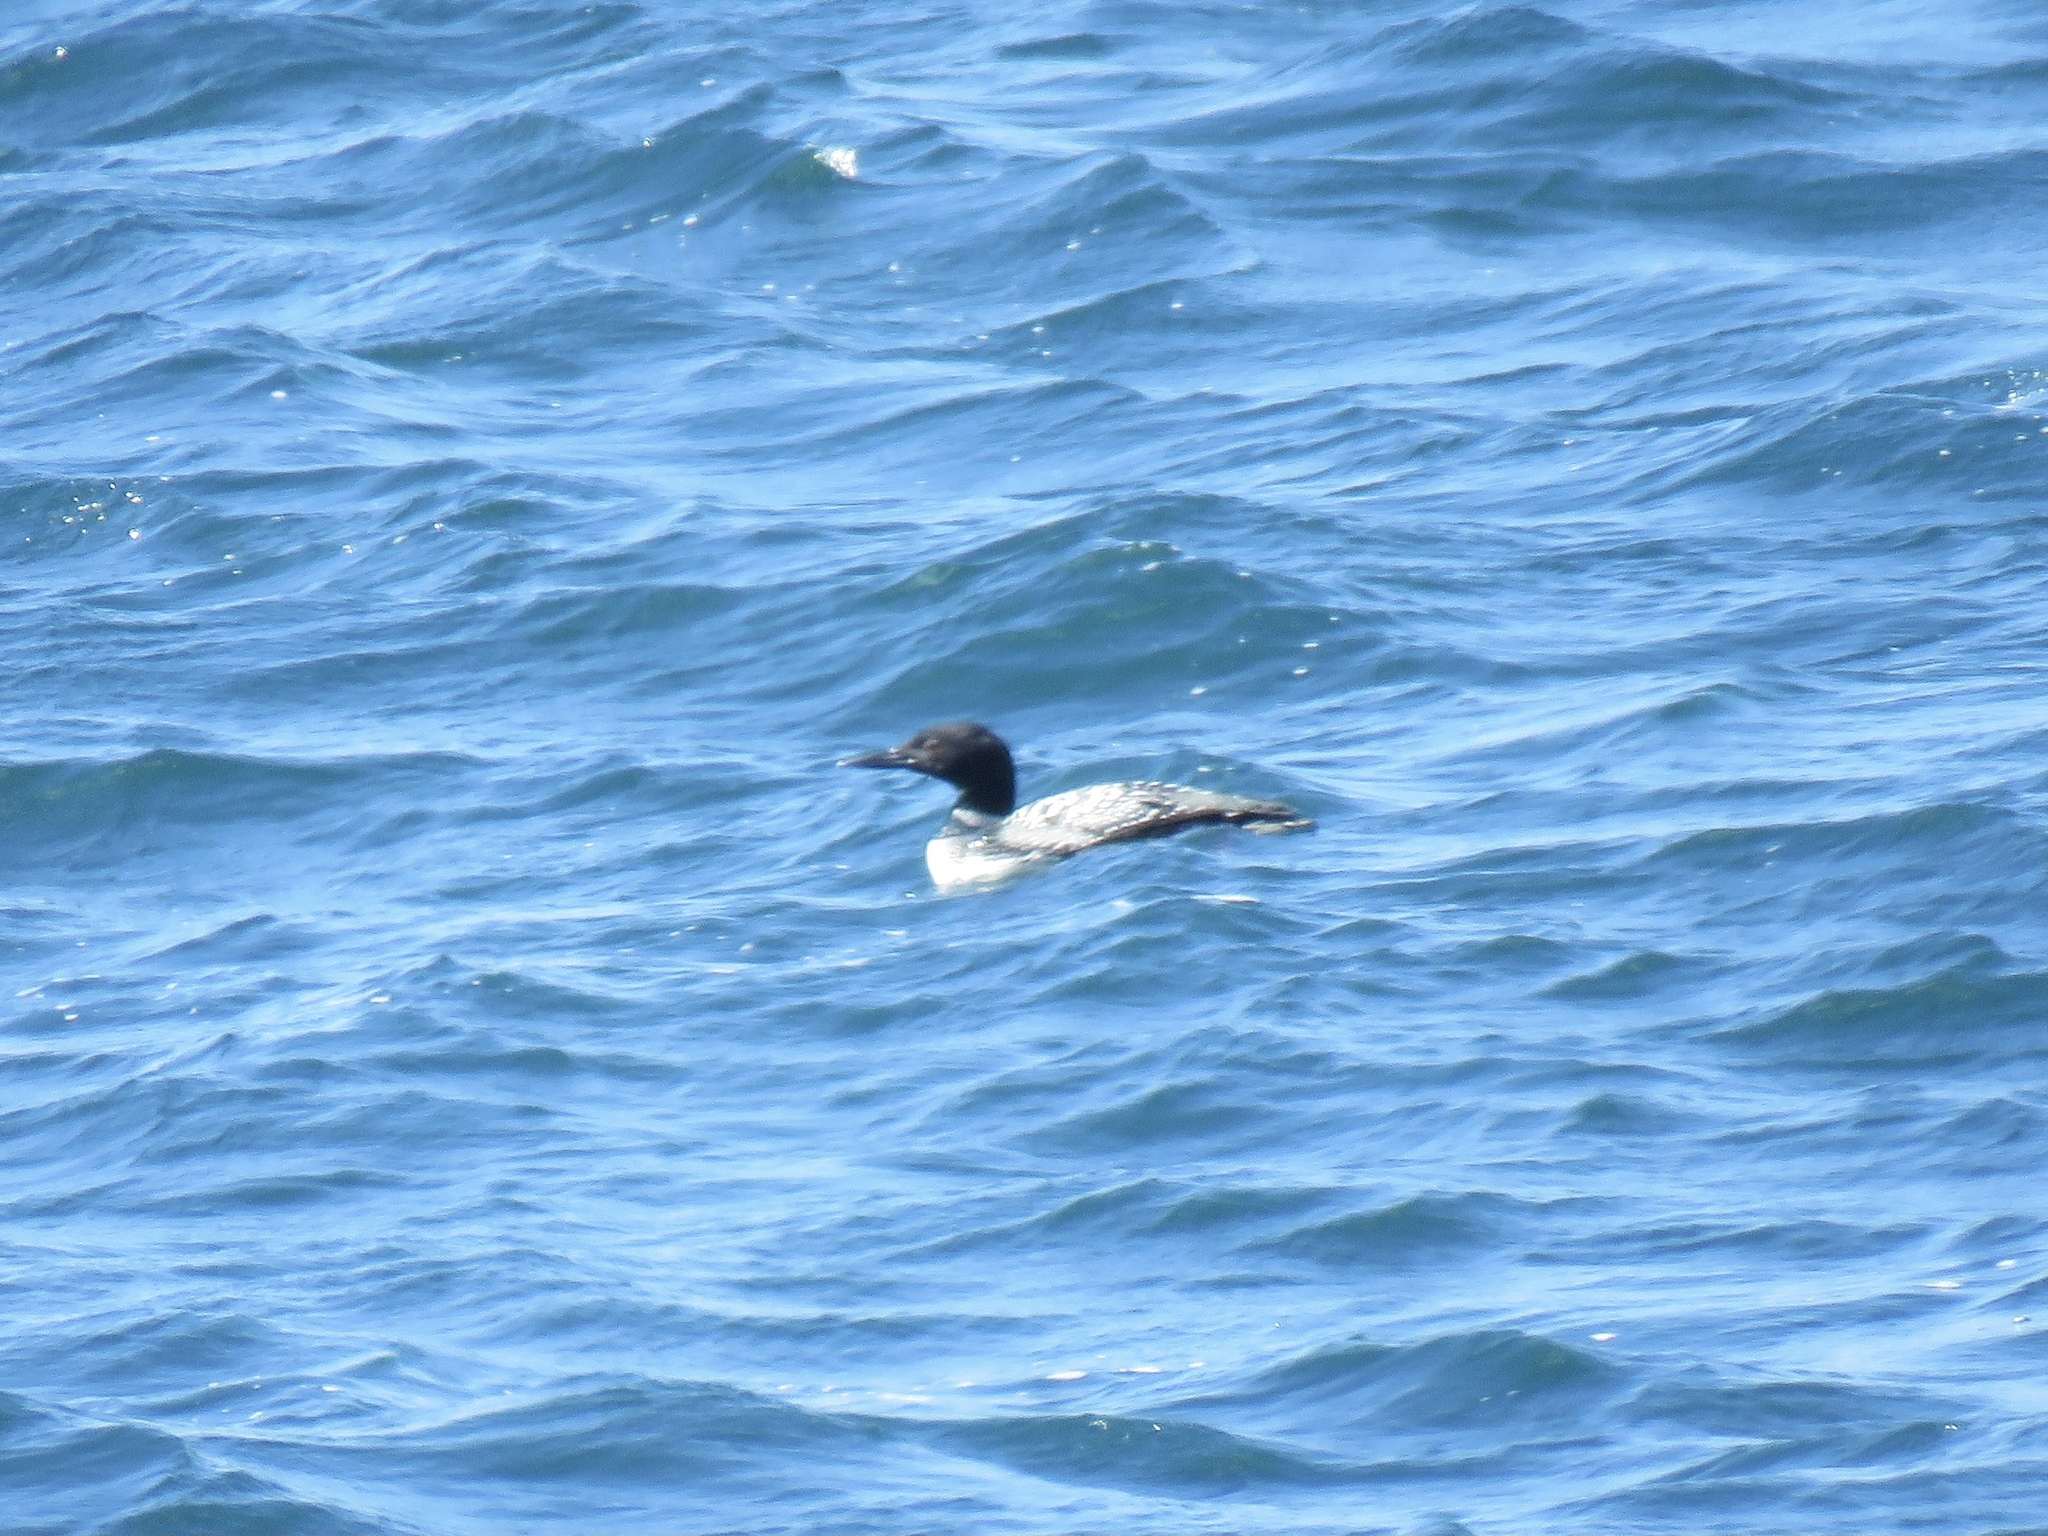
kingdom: Animalia
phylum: Chordata
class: Aves
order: Gaviiformes
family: Gaviidae
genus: Gavia
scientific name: Gavia immer
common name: Common loon
